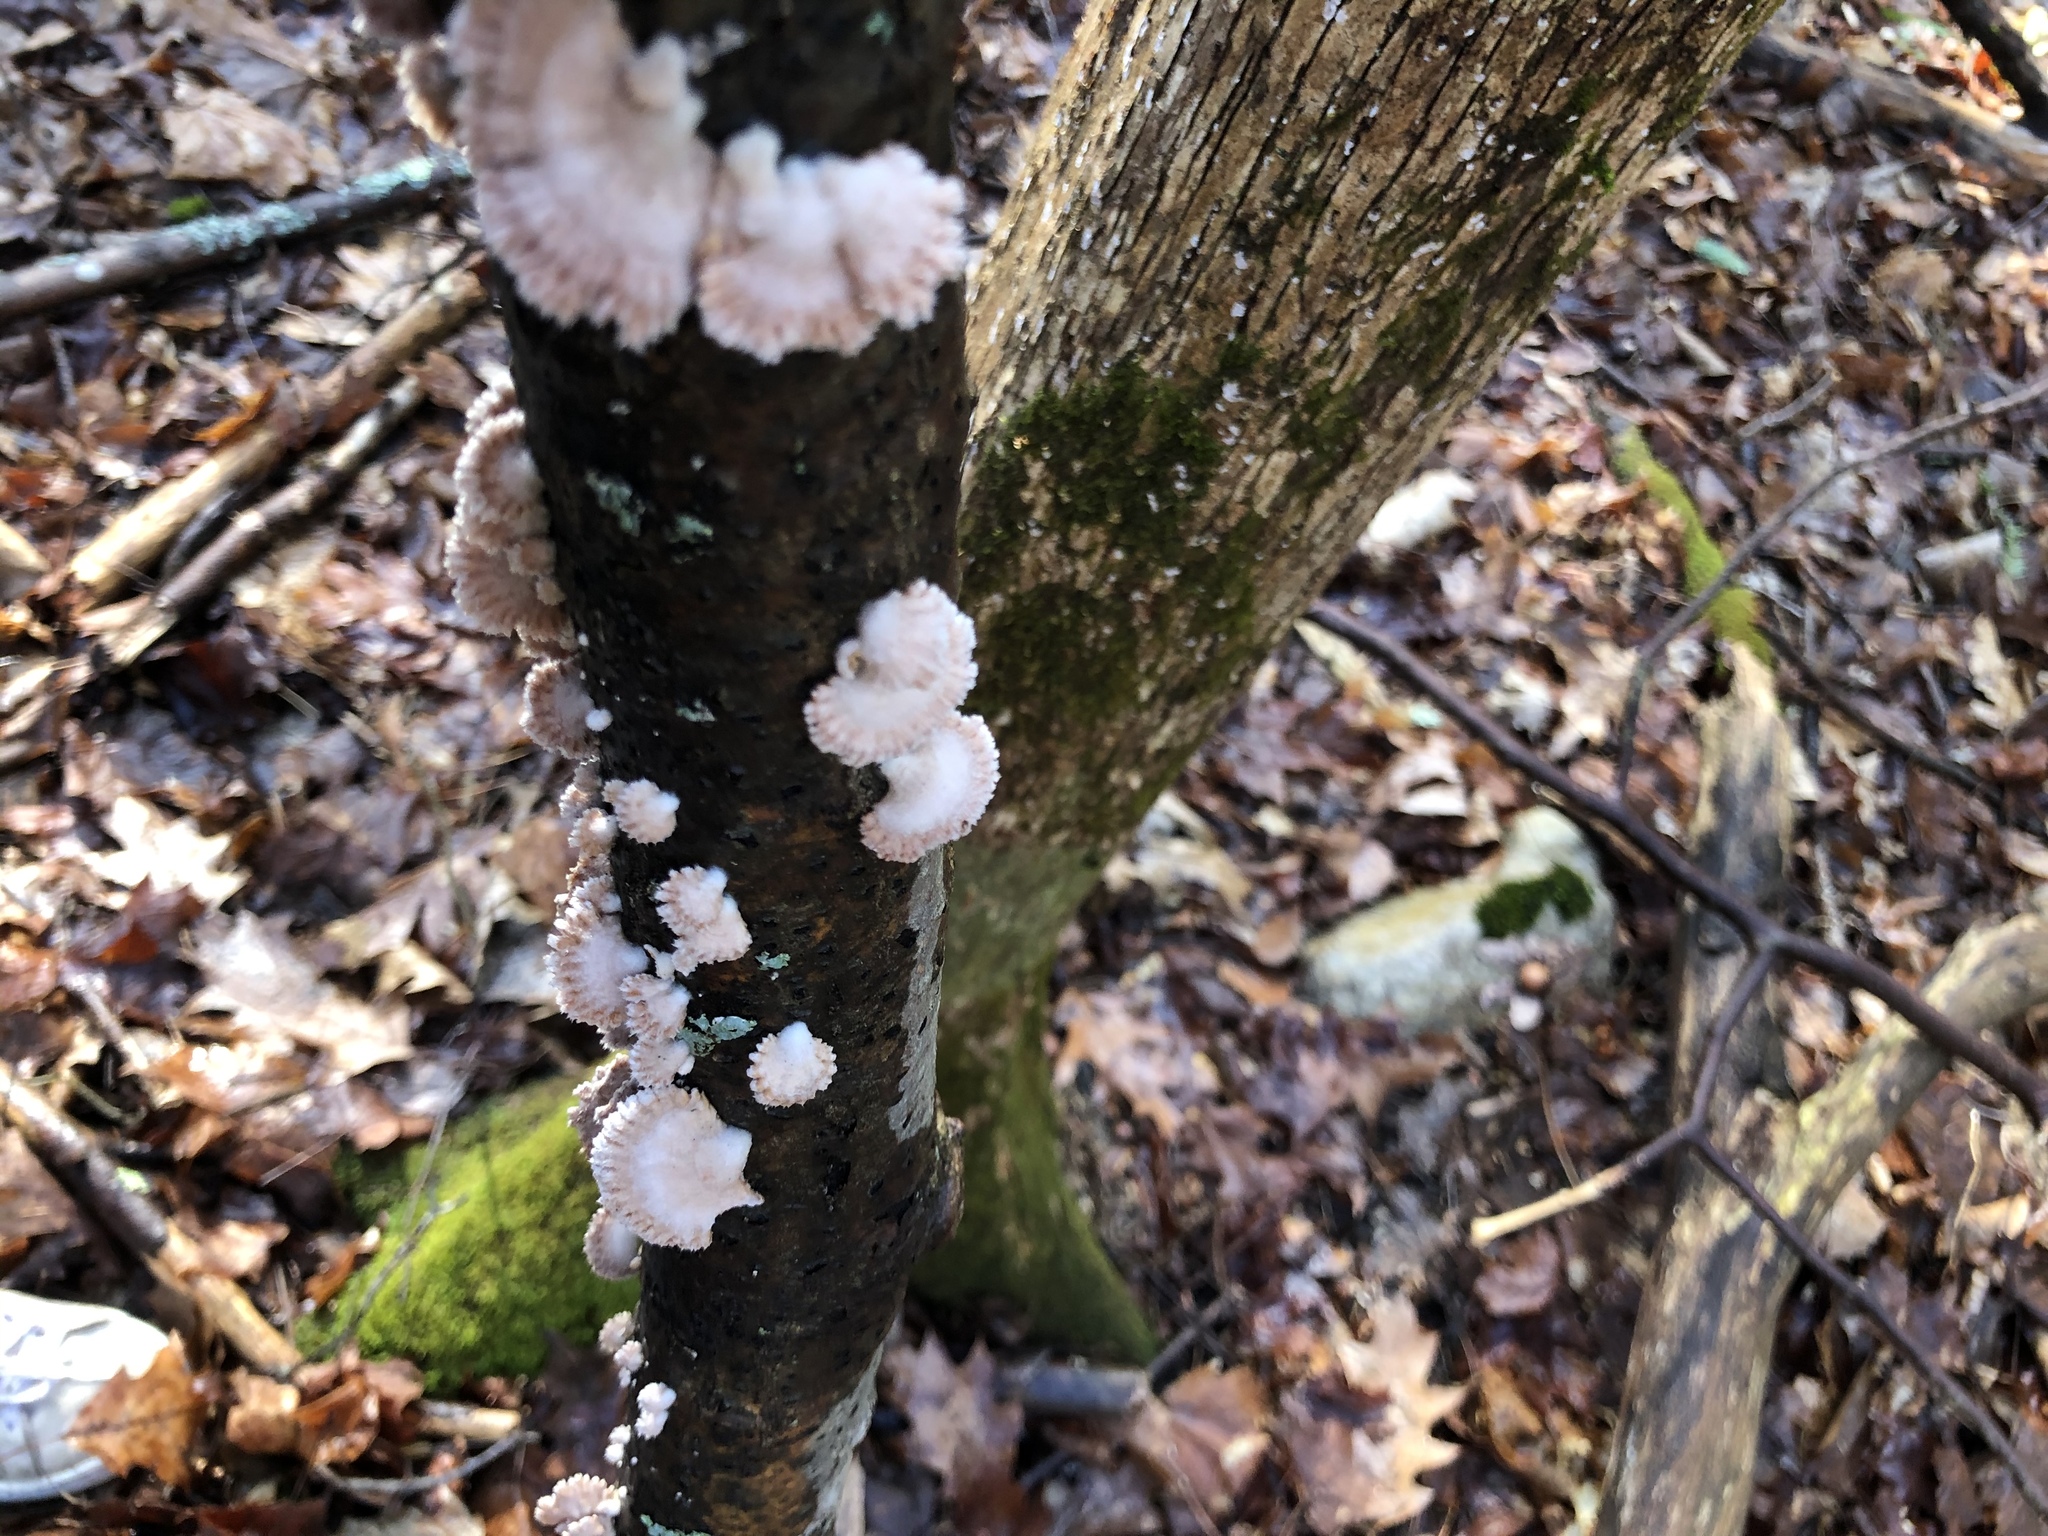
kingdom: Fungi
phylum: Basidiomycota
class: Agaricomycetes
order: Agaricales
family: Schizophyllaceae
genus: Schizophyllum
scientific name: Schizophyllum commune
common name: Common porecrust
